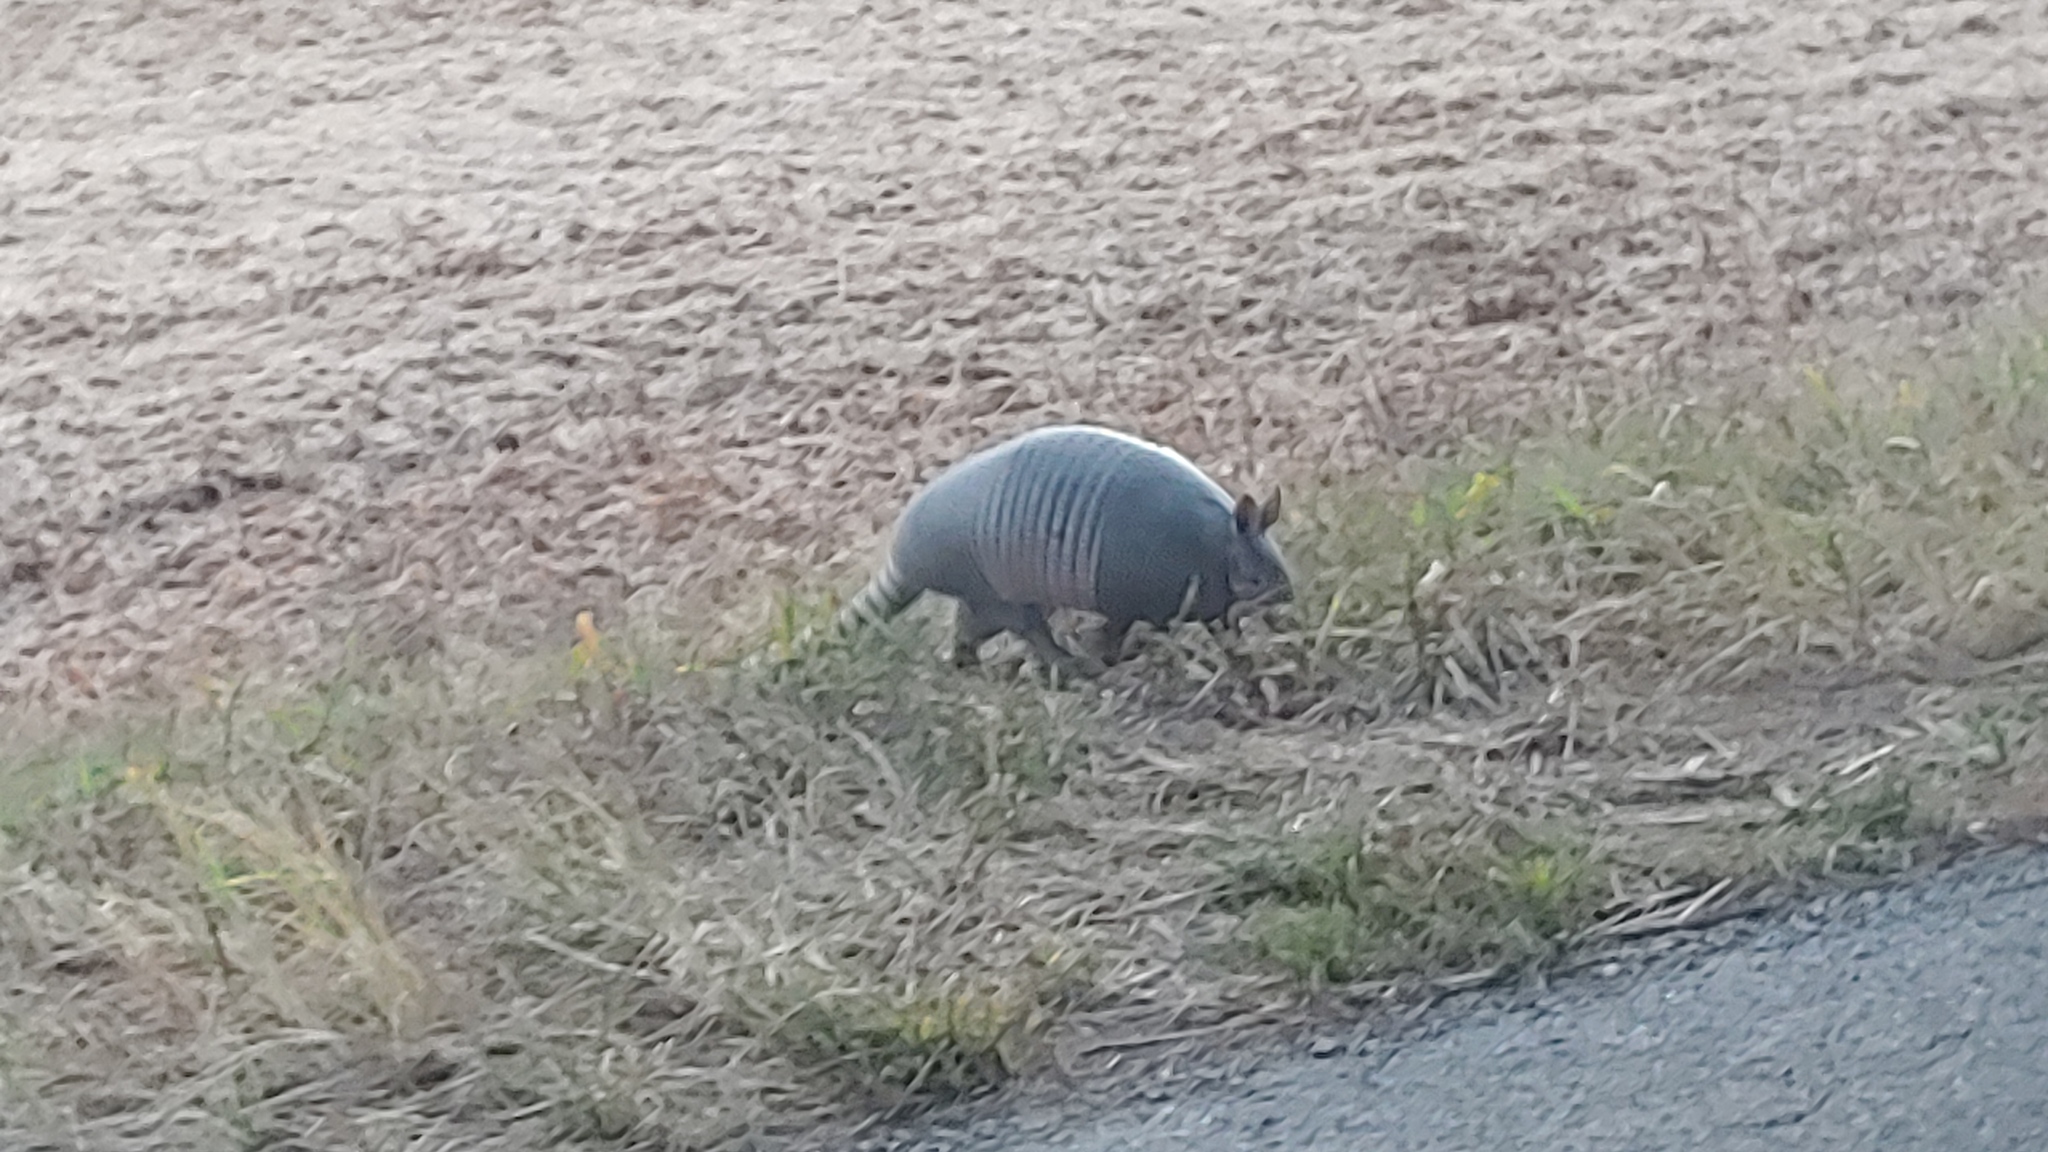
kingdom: Animalia
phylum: Chordata
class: Mammalia
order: Cingulata
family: Dasypodidae
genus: Dasypus
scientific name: Dasypus novemcinctus
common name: Nine-banded armadillo
